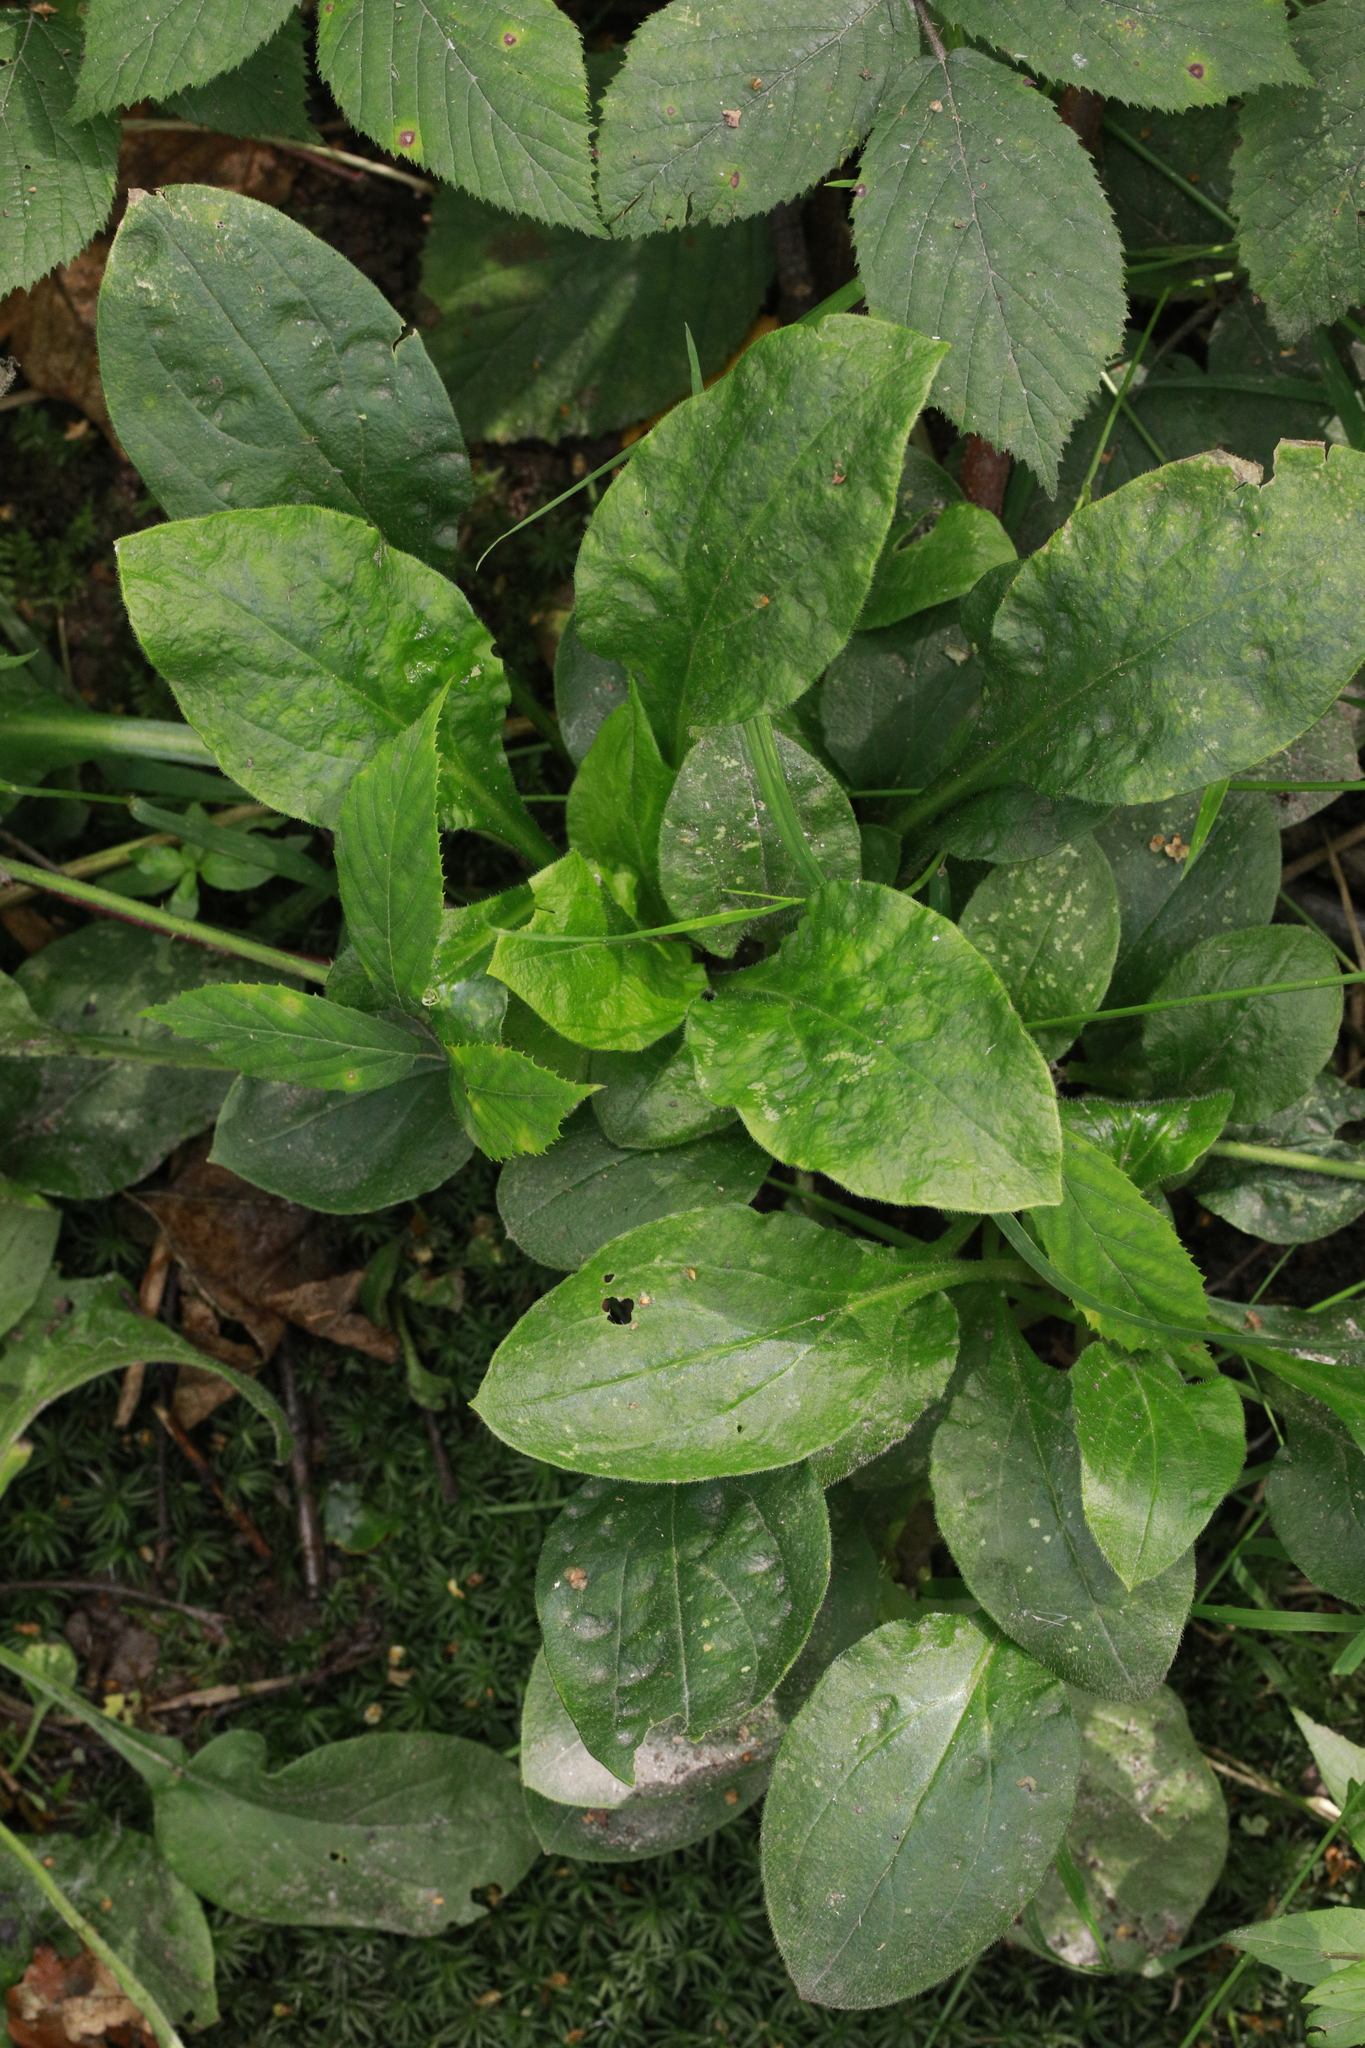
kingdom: Plantae
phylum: Tracheophyta
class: Magnoliopsida
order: Caryophyllales
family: Caryophyllaceae
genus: Silene
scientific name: Silene dioica
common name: Red campion
